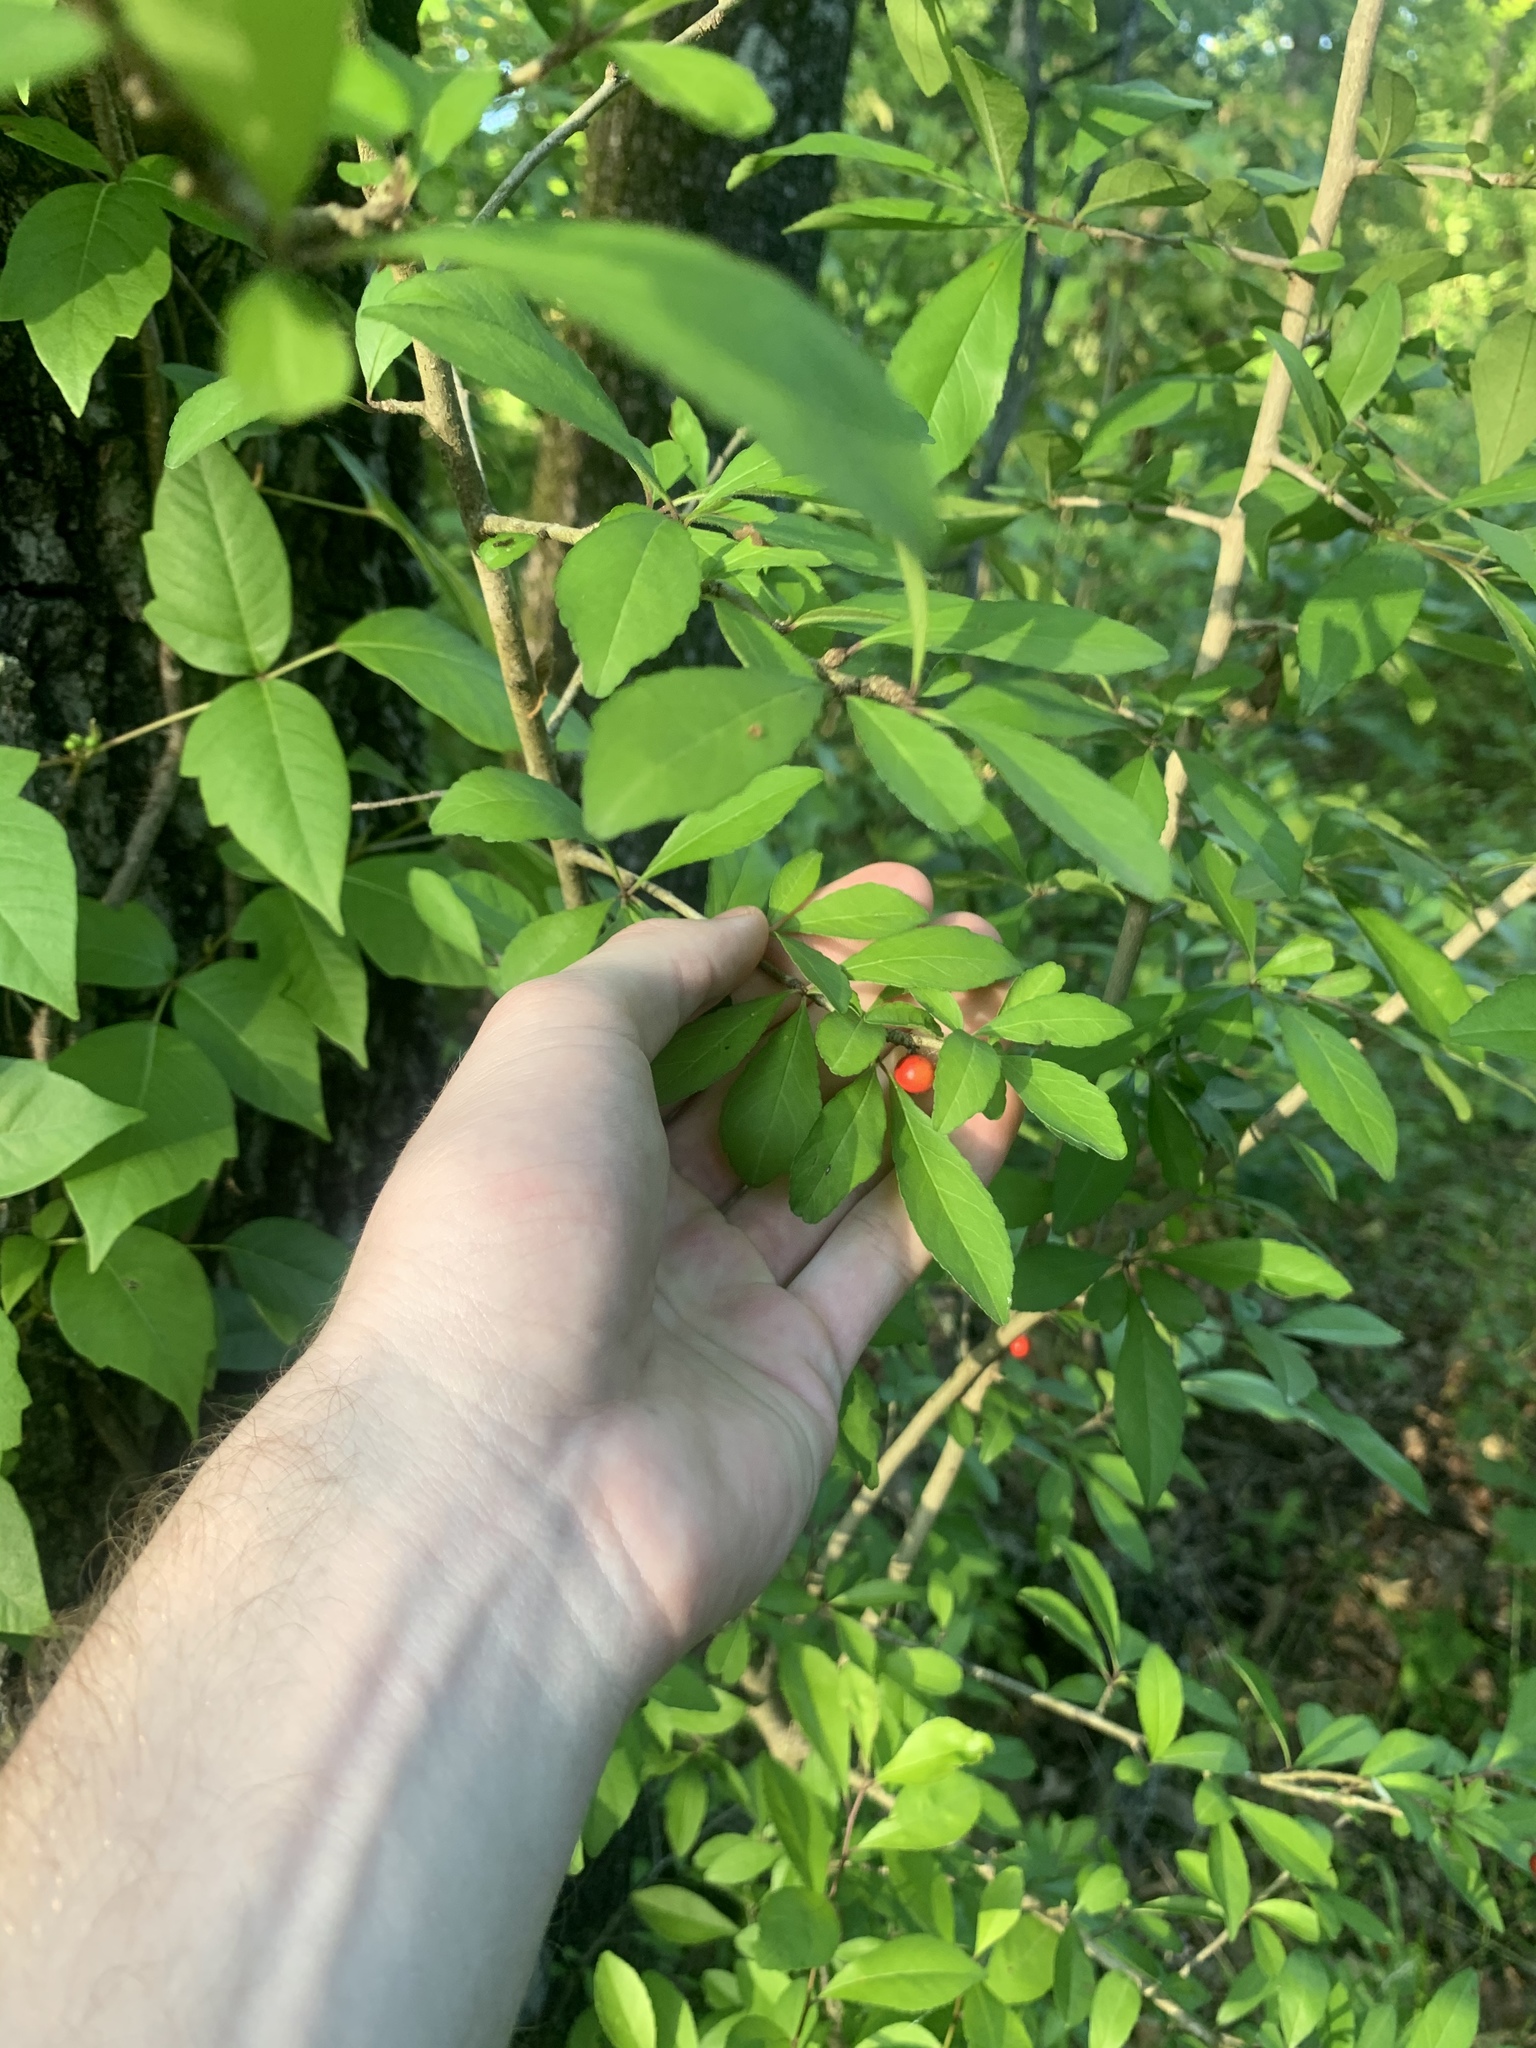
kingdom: Plantae
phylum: Tracheophyta
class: Magnoliopsida
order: Aquifoliales
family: Aquifoliaceae
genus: Ilex
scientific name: Ilex decidua
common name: Possum-haw
